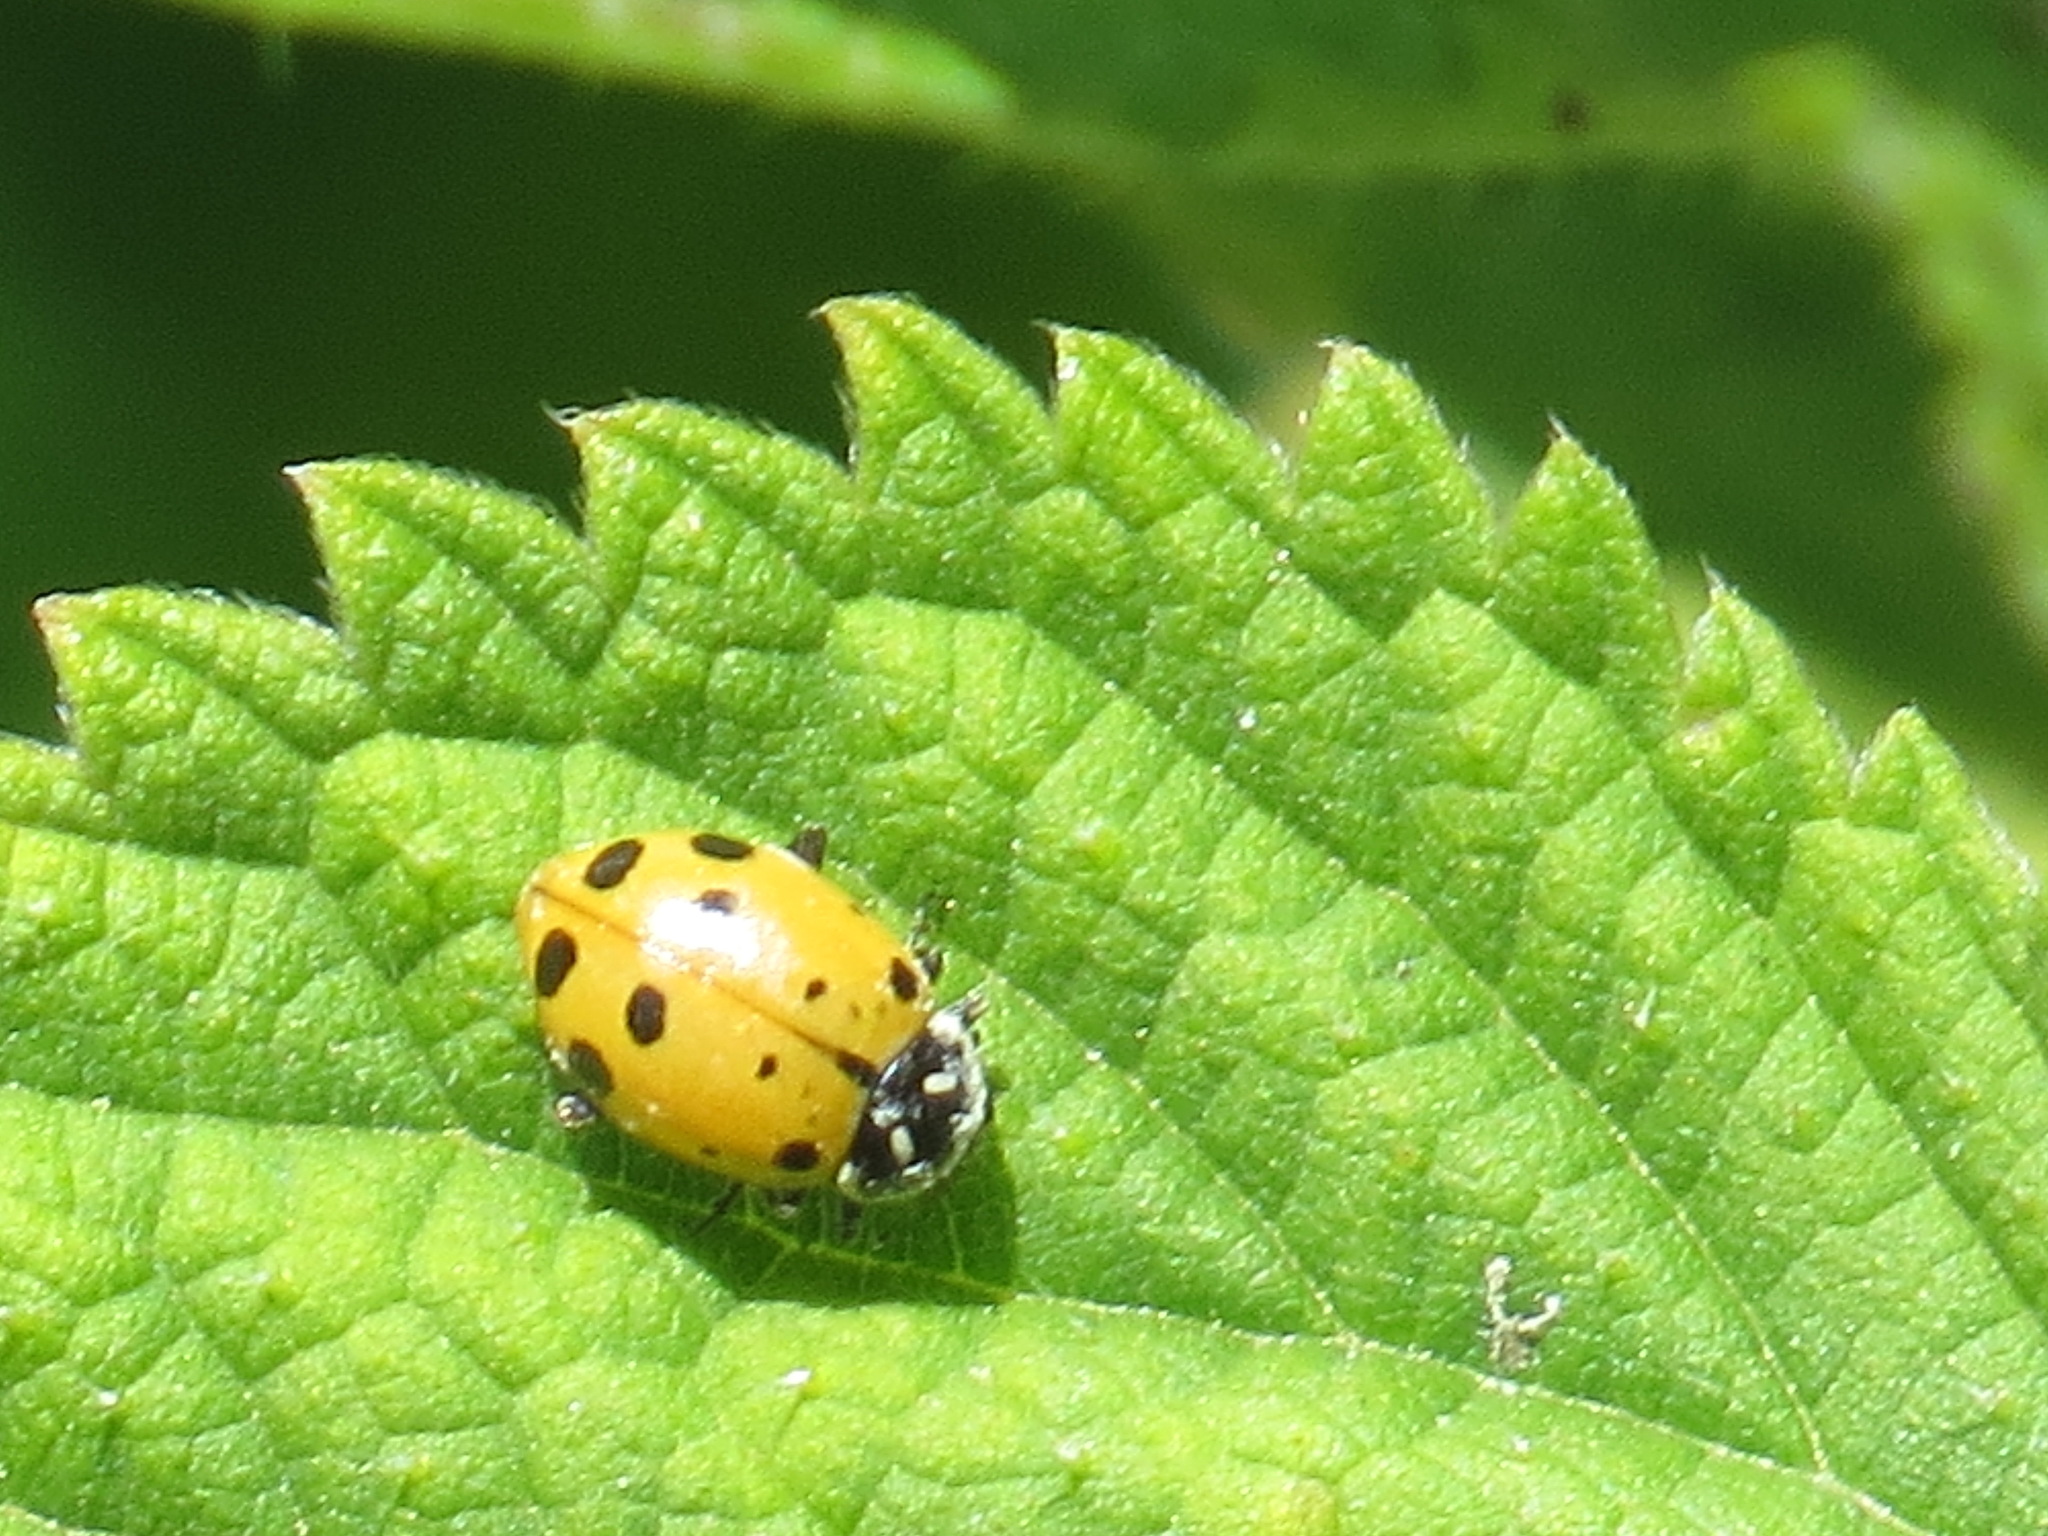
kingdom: Animalia
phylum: Arthropoda
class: Insecta
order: Coleoptera
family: Coccinellidae
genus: Hippodamia
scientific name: Hippodamia convergens
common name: Convergent lady beetle
